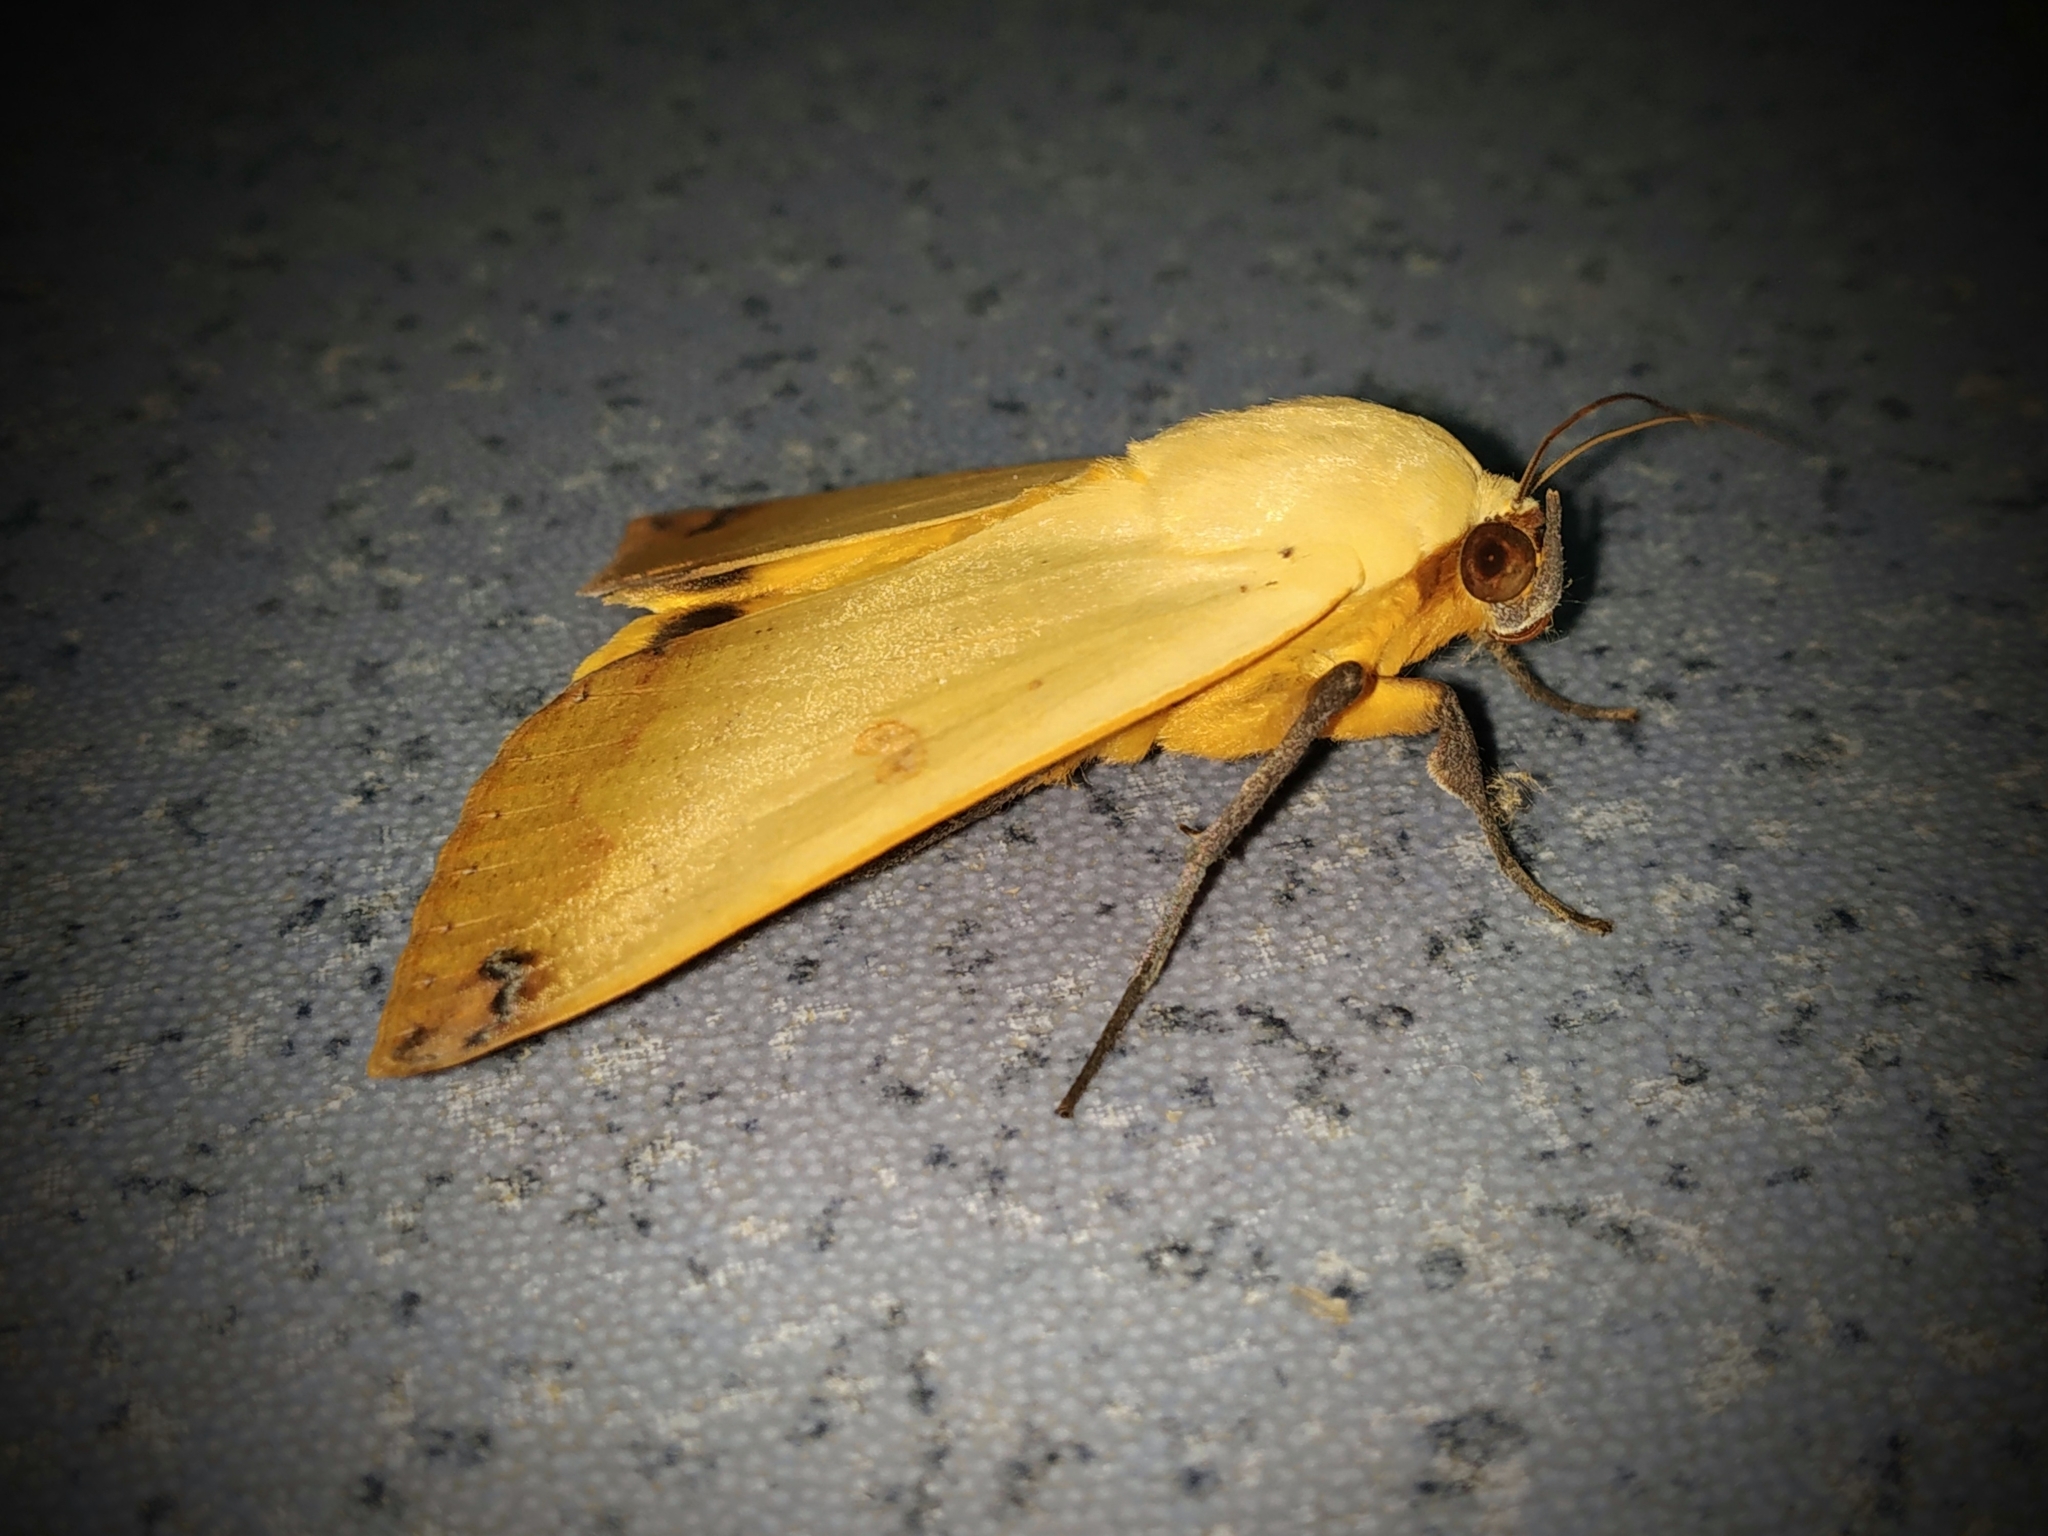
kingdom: Animalia
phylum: Arthropoda
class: Insecta
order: Lepidoptera
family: Erebidae
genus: Ophiusa
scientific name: Ophiusa disjungens
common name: Moth
